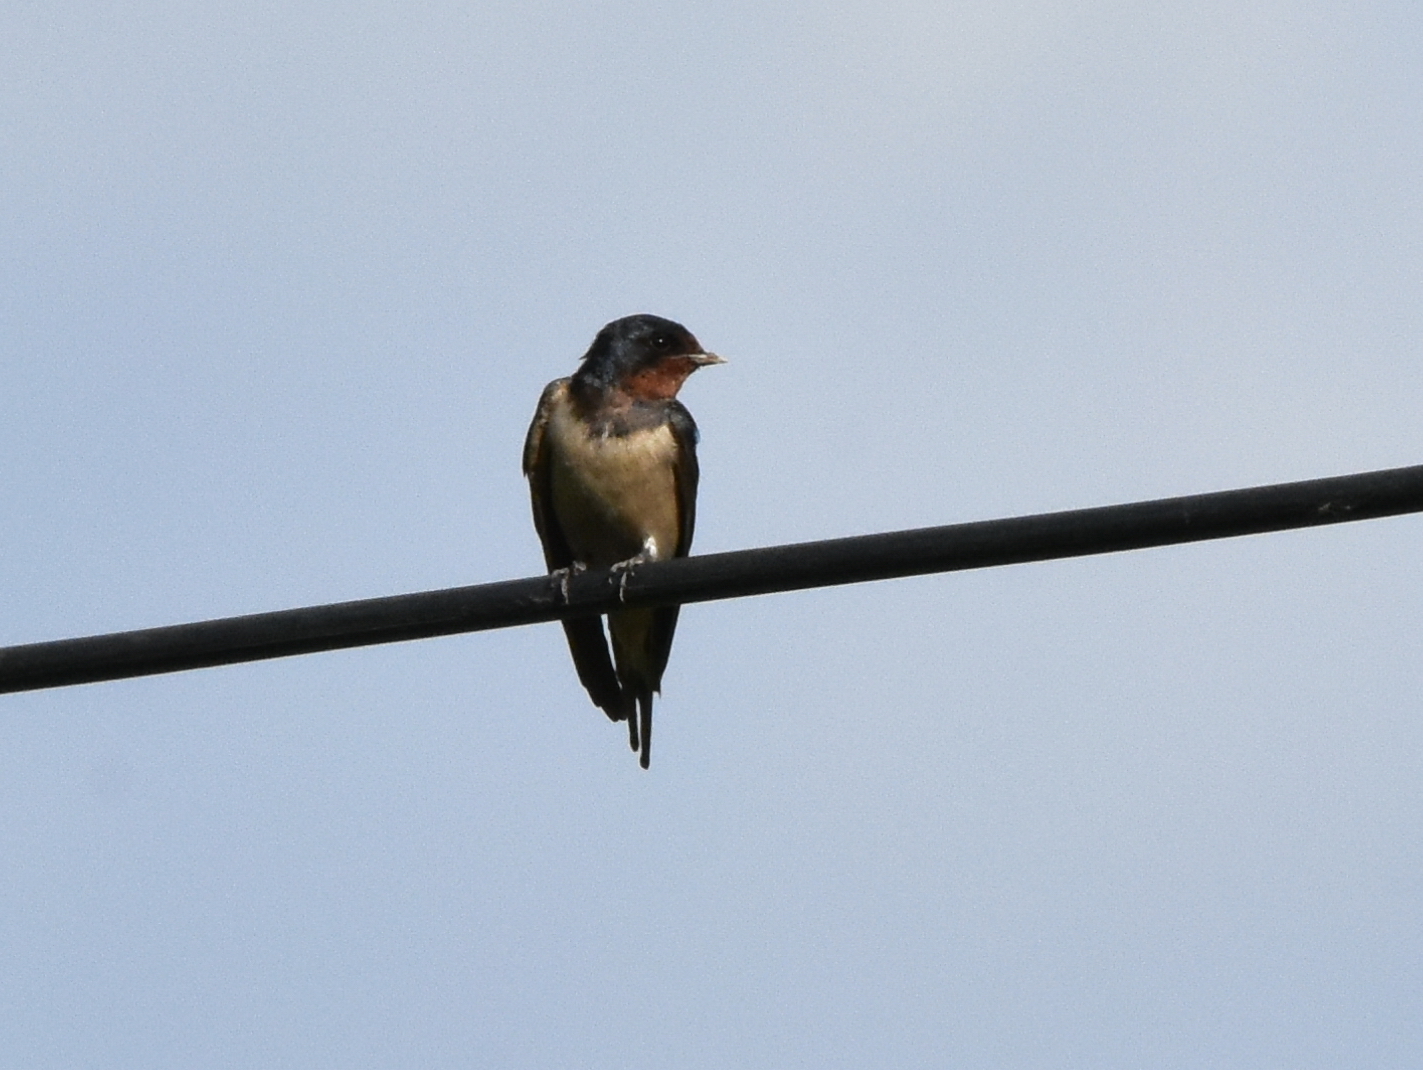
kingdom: Animalia
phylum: Chordata
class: Aves
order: Passeriformes
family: Hirundinidae
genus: Hirundo
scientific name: Hirundo rustica
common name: Barn swallow
